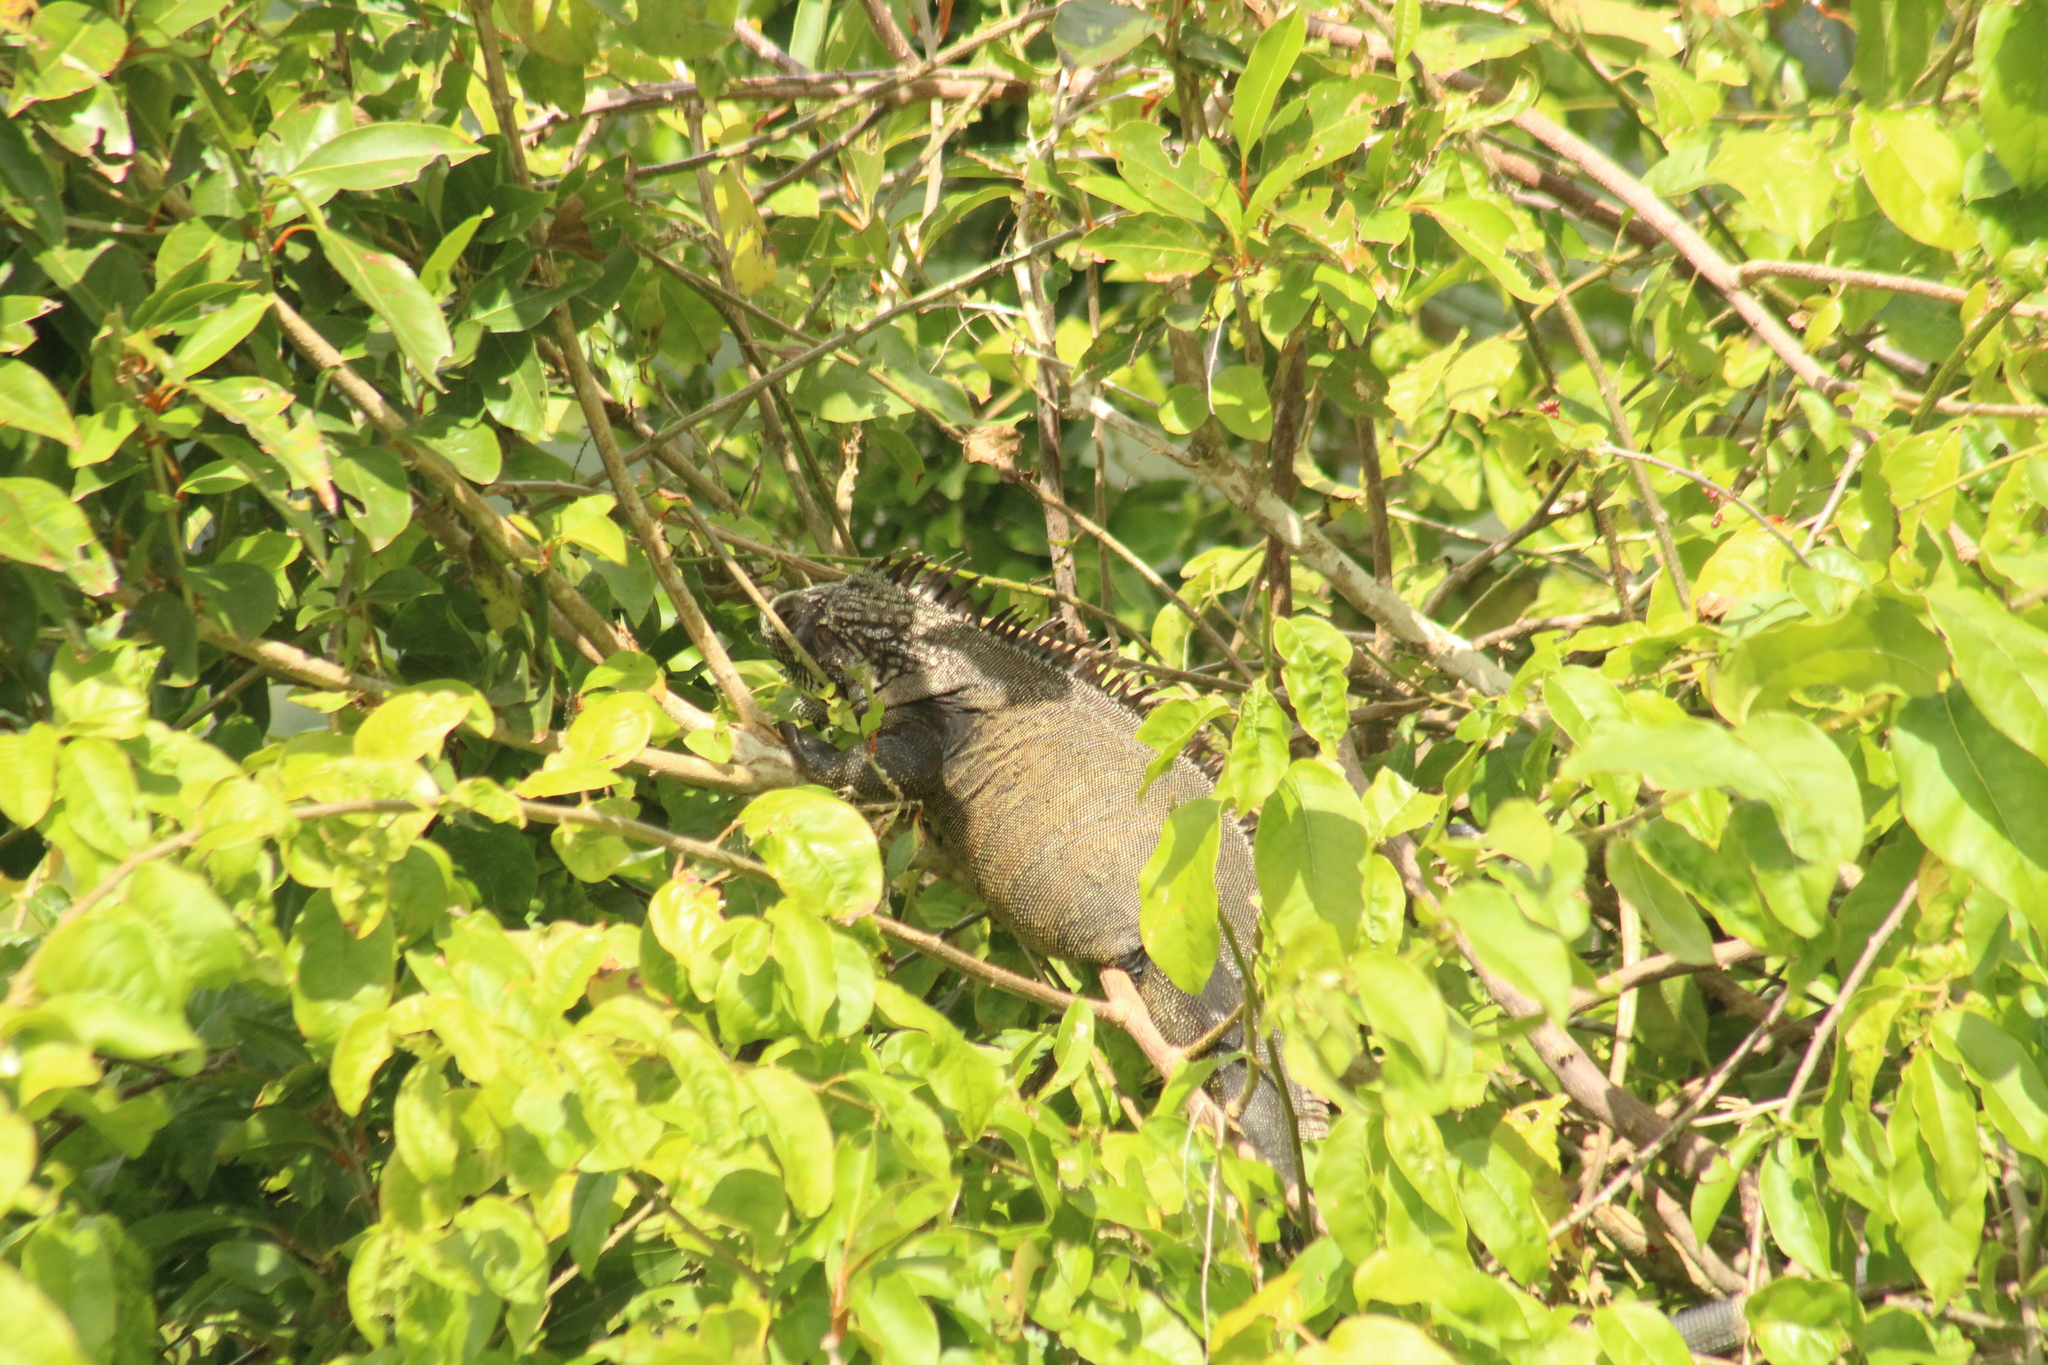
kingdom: Animalia
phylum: Chordata
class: Squamata
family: Iguanidae
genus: Iguana
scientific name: Iguana iguana
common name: Green iguana
